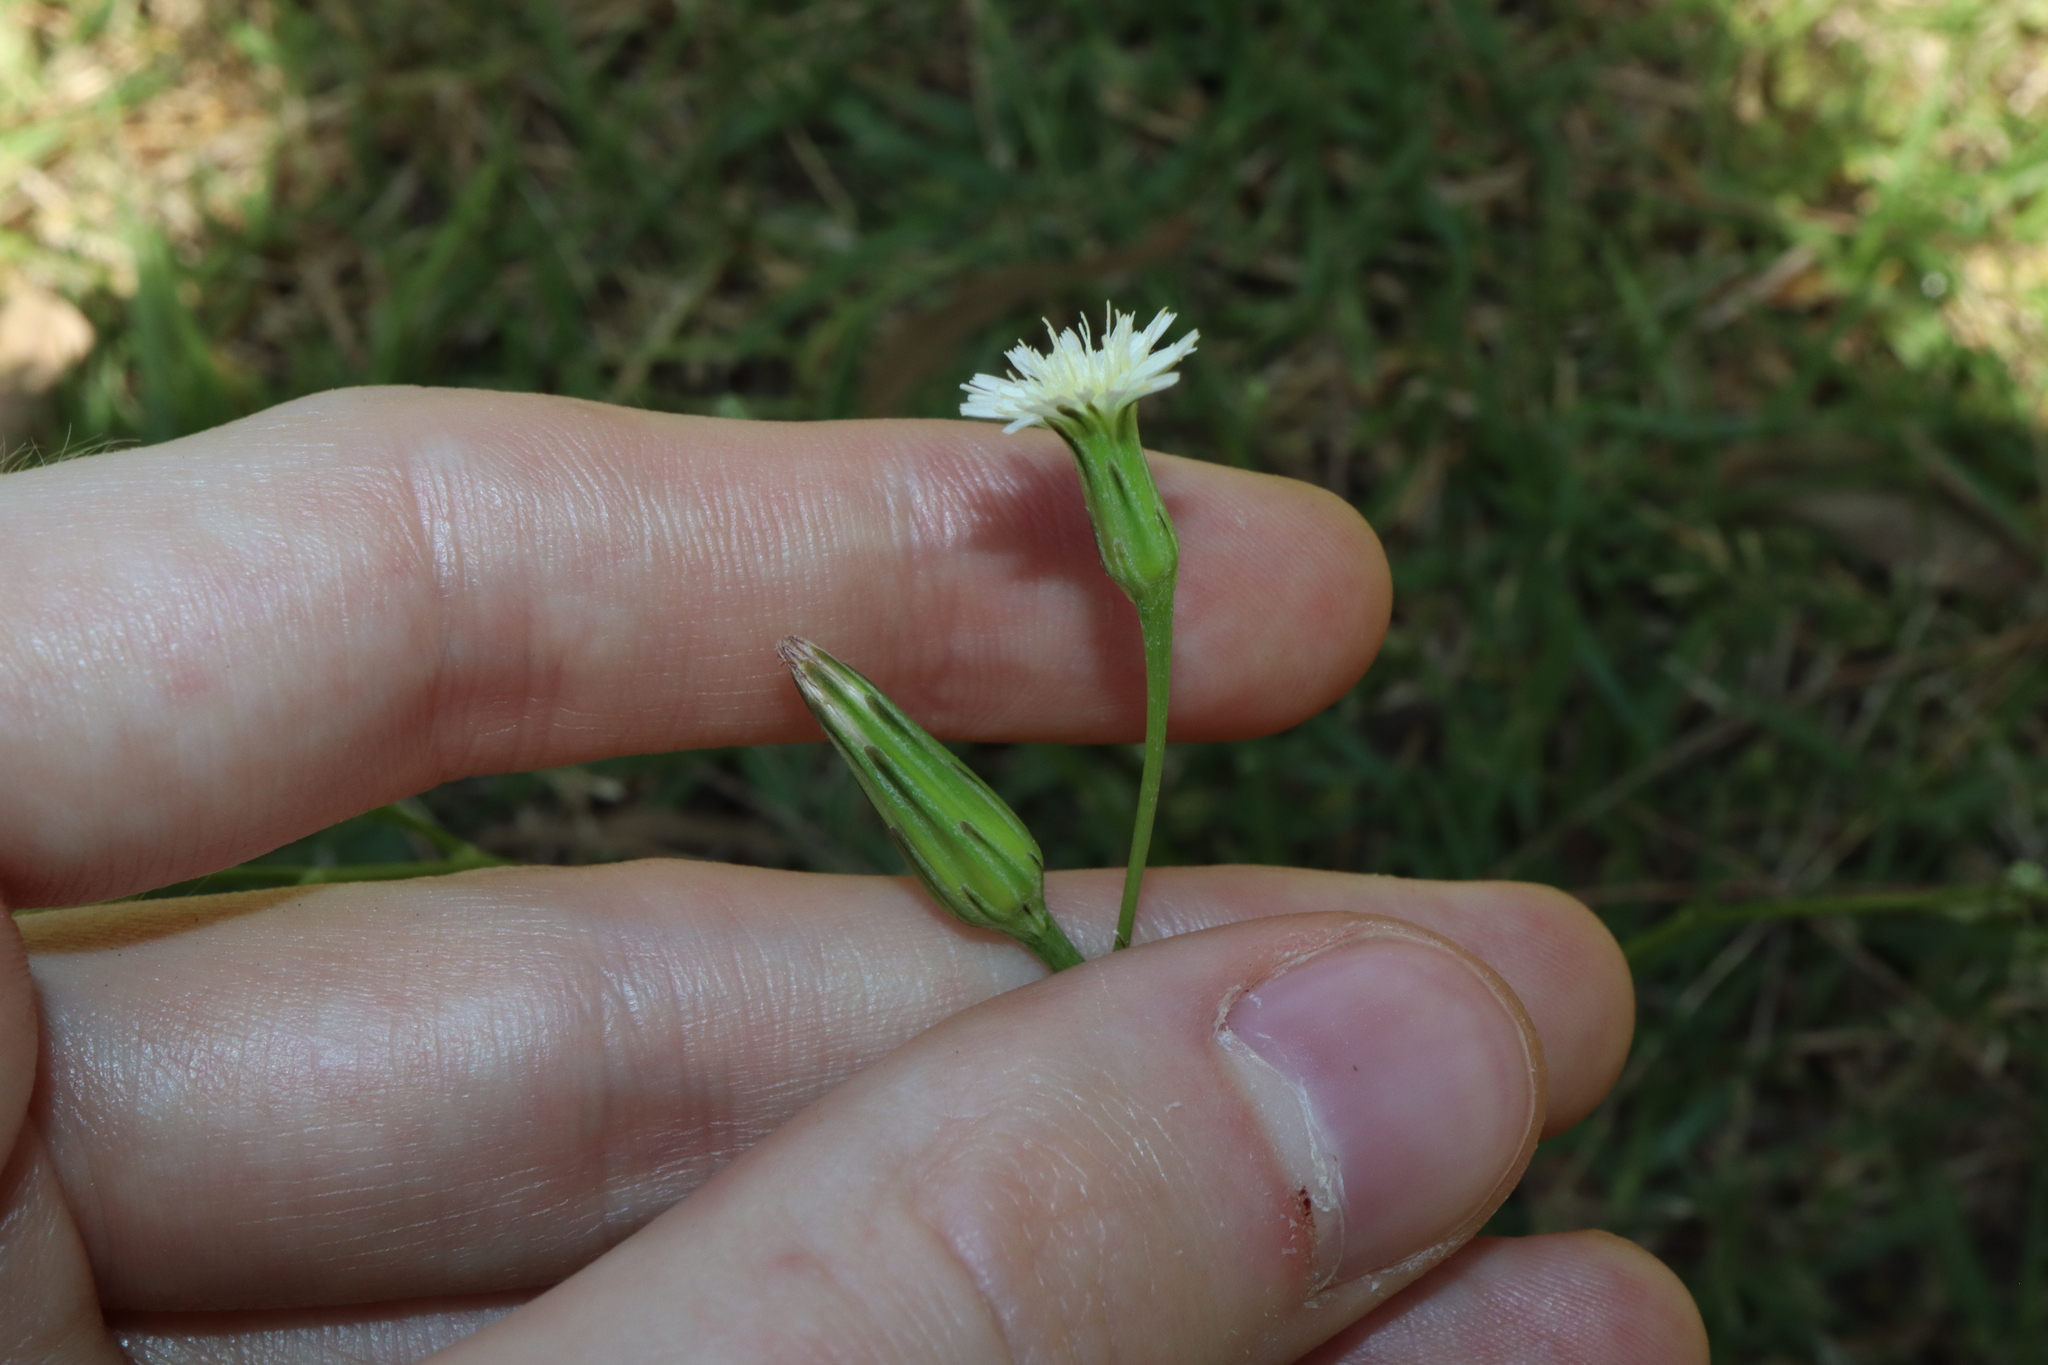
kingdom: Plantae
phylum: Tracheophyta
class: Magnoliopsida
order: Asterales
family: Asteraceae
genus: Hypochaeris
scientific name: Hypochaeris albiflora
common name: White flatweed
